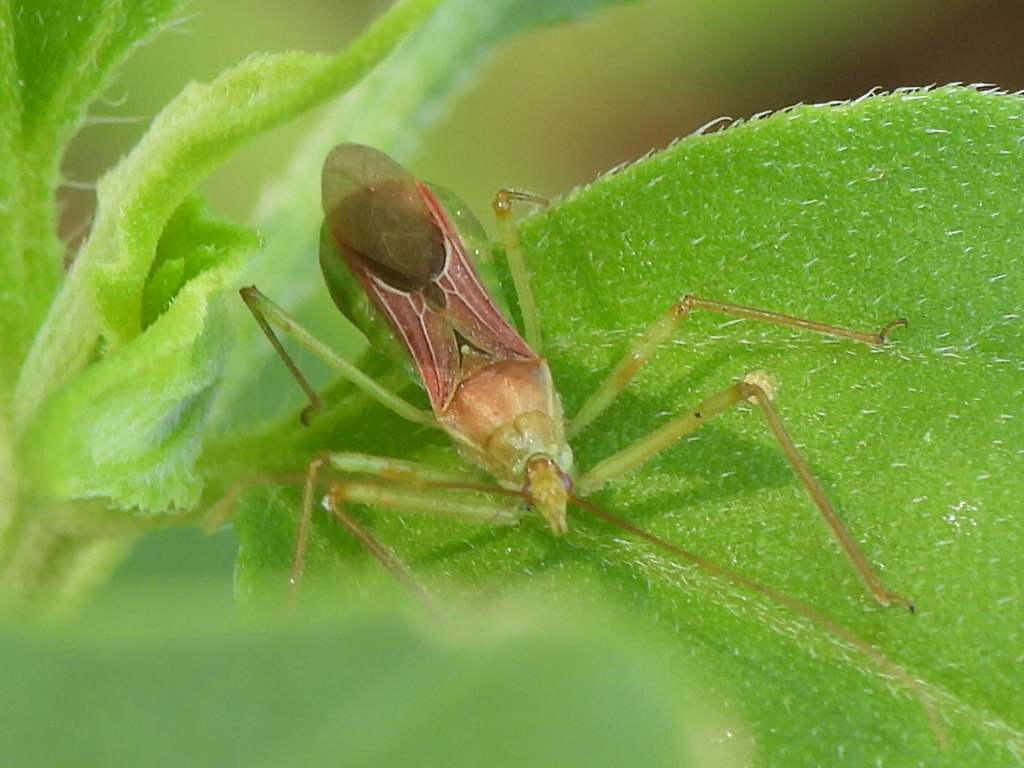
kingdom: Animalia
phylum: Arthropoda
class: Insecta
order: Hemiptera
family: Reduviidae
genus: Zelus
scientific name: Zelus renardii
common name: Assassin bug
